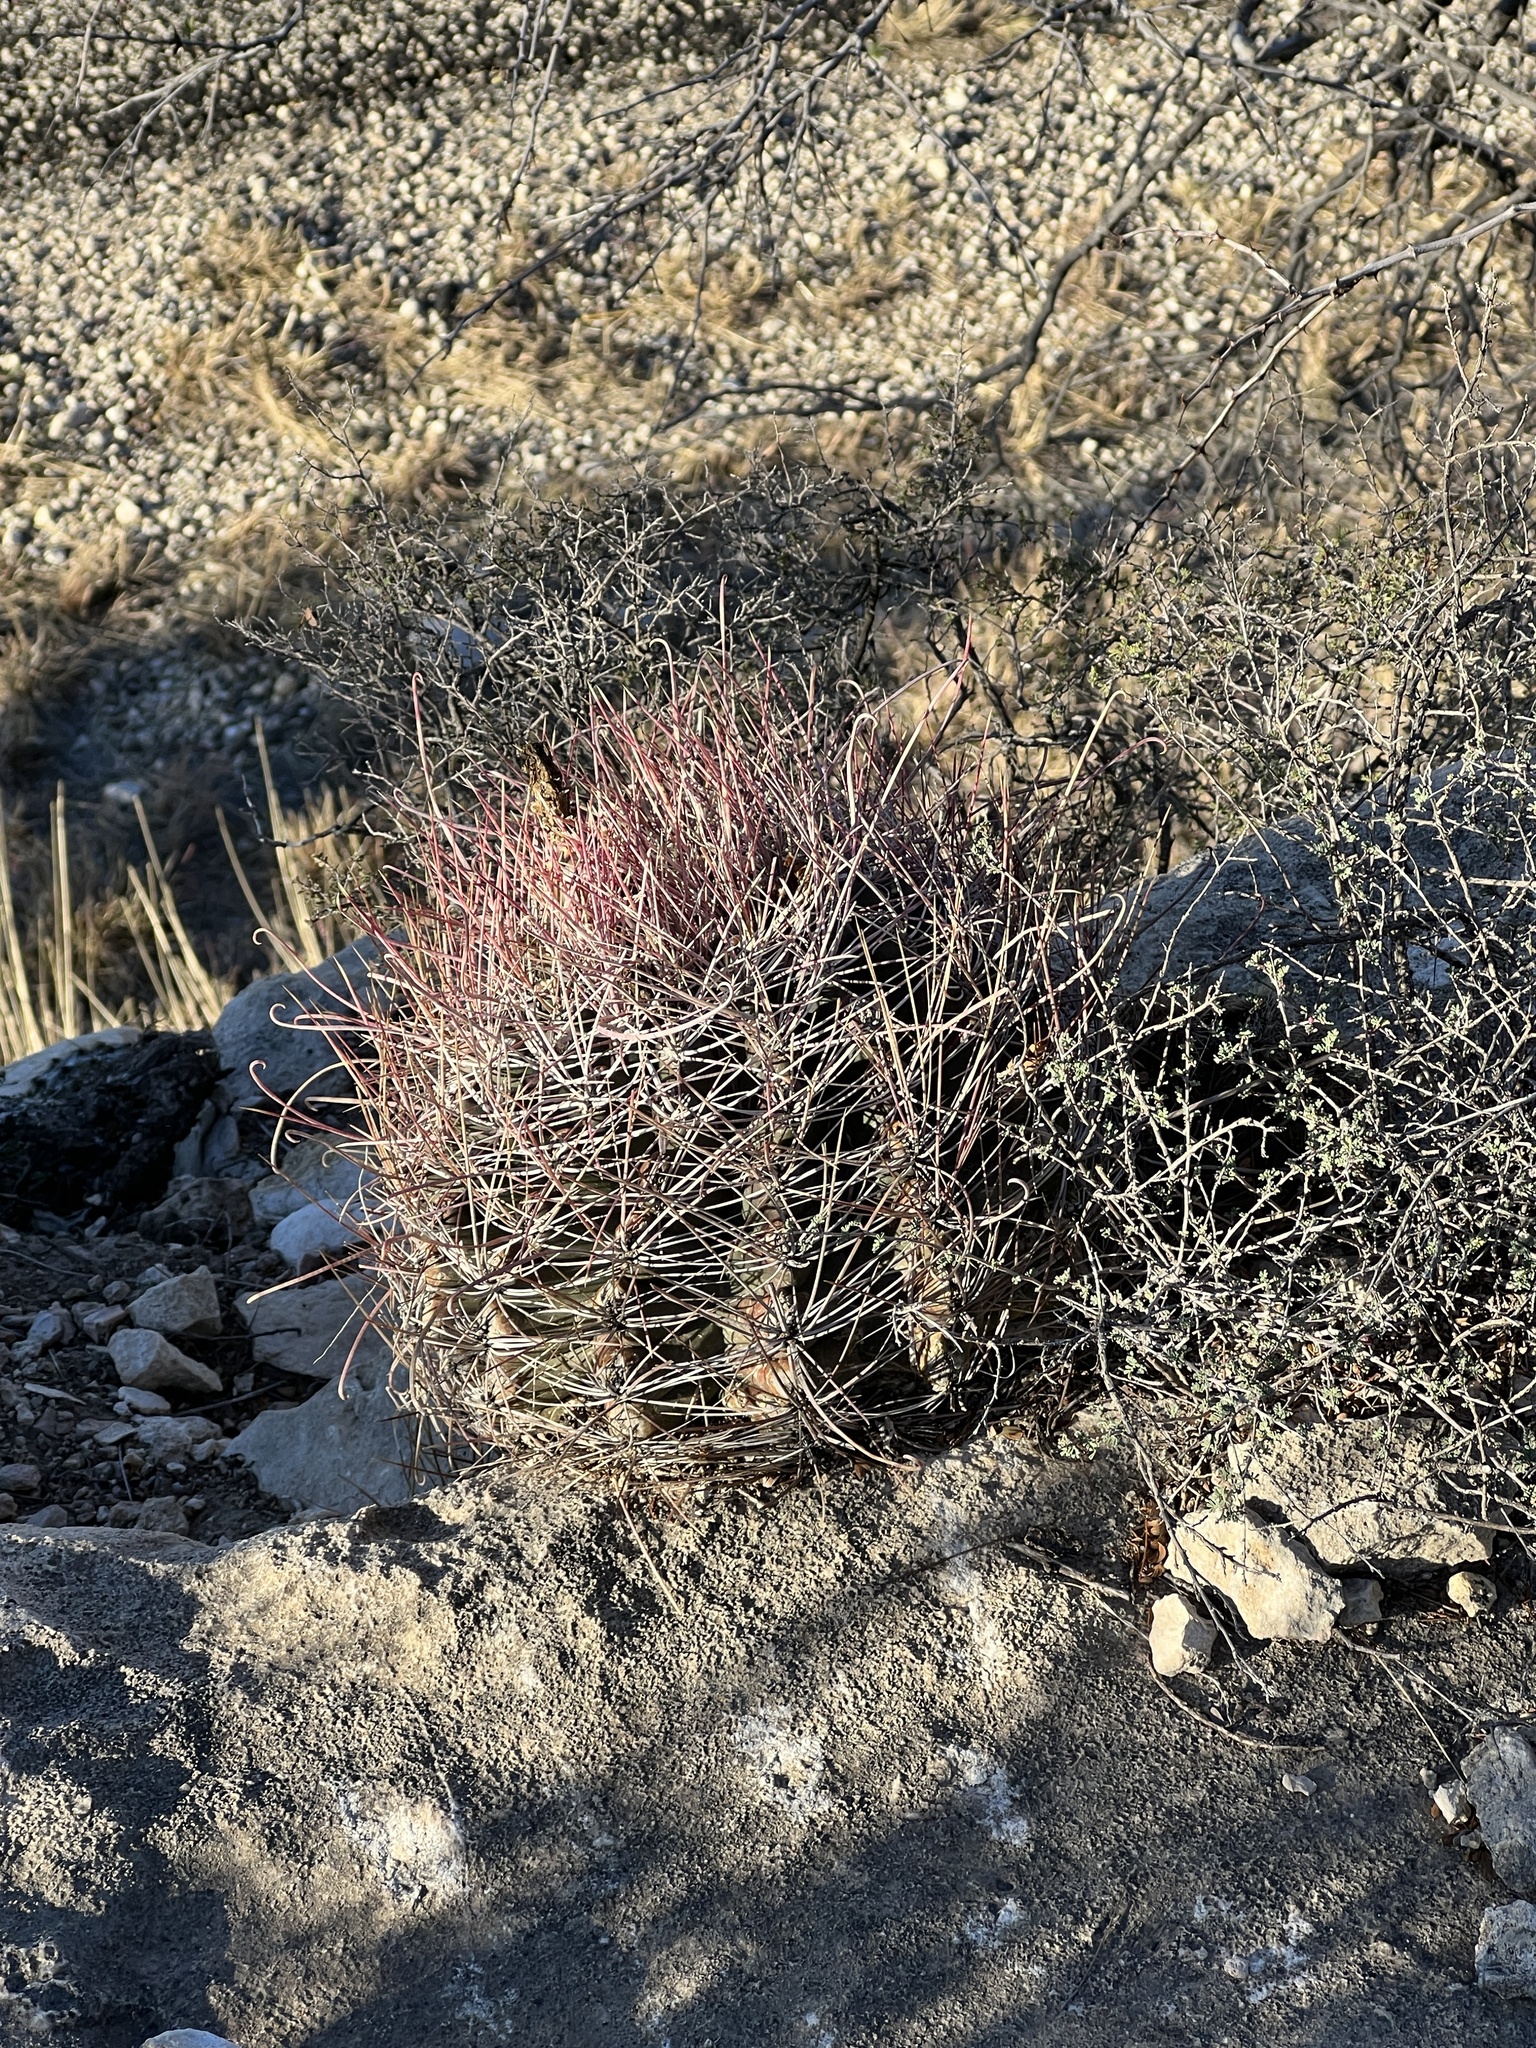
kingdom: Plantae
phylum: Tracheophyta
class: Magnoliopsida
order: Caryophyllales
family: Cactaceae
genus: Bisnaga
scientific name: Bisnaga hamatacantha
